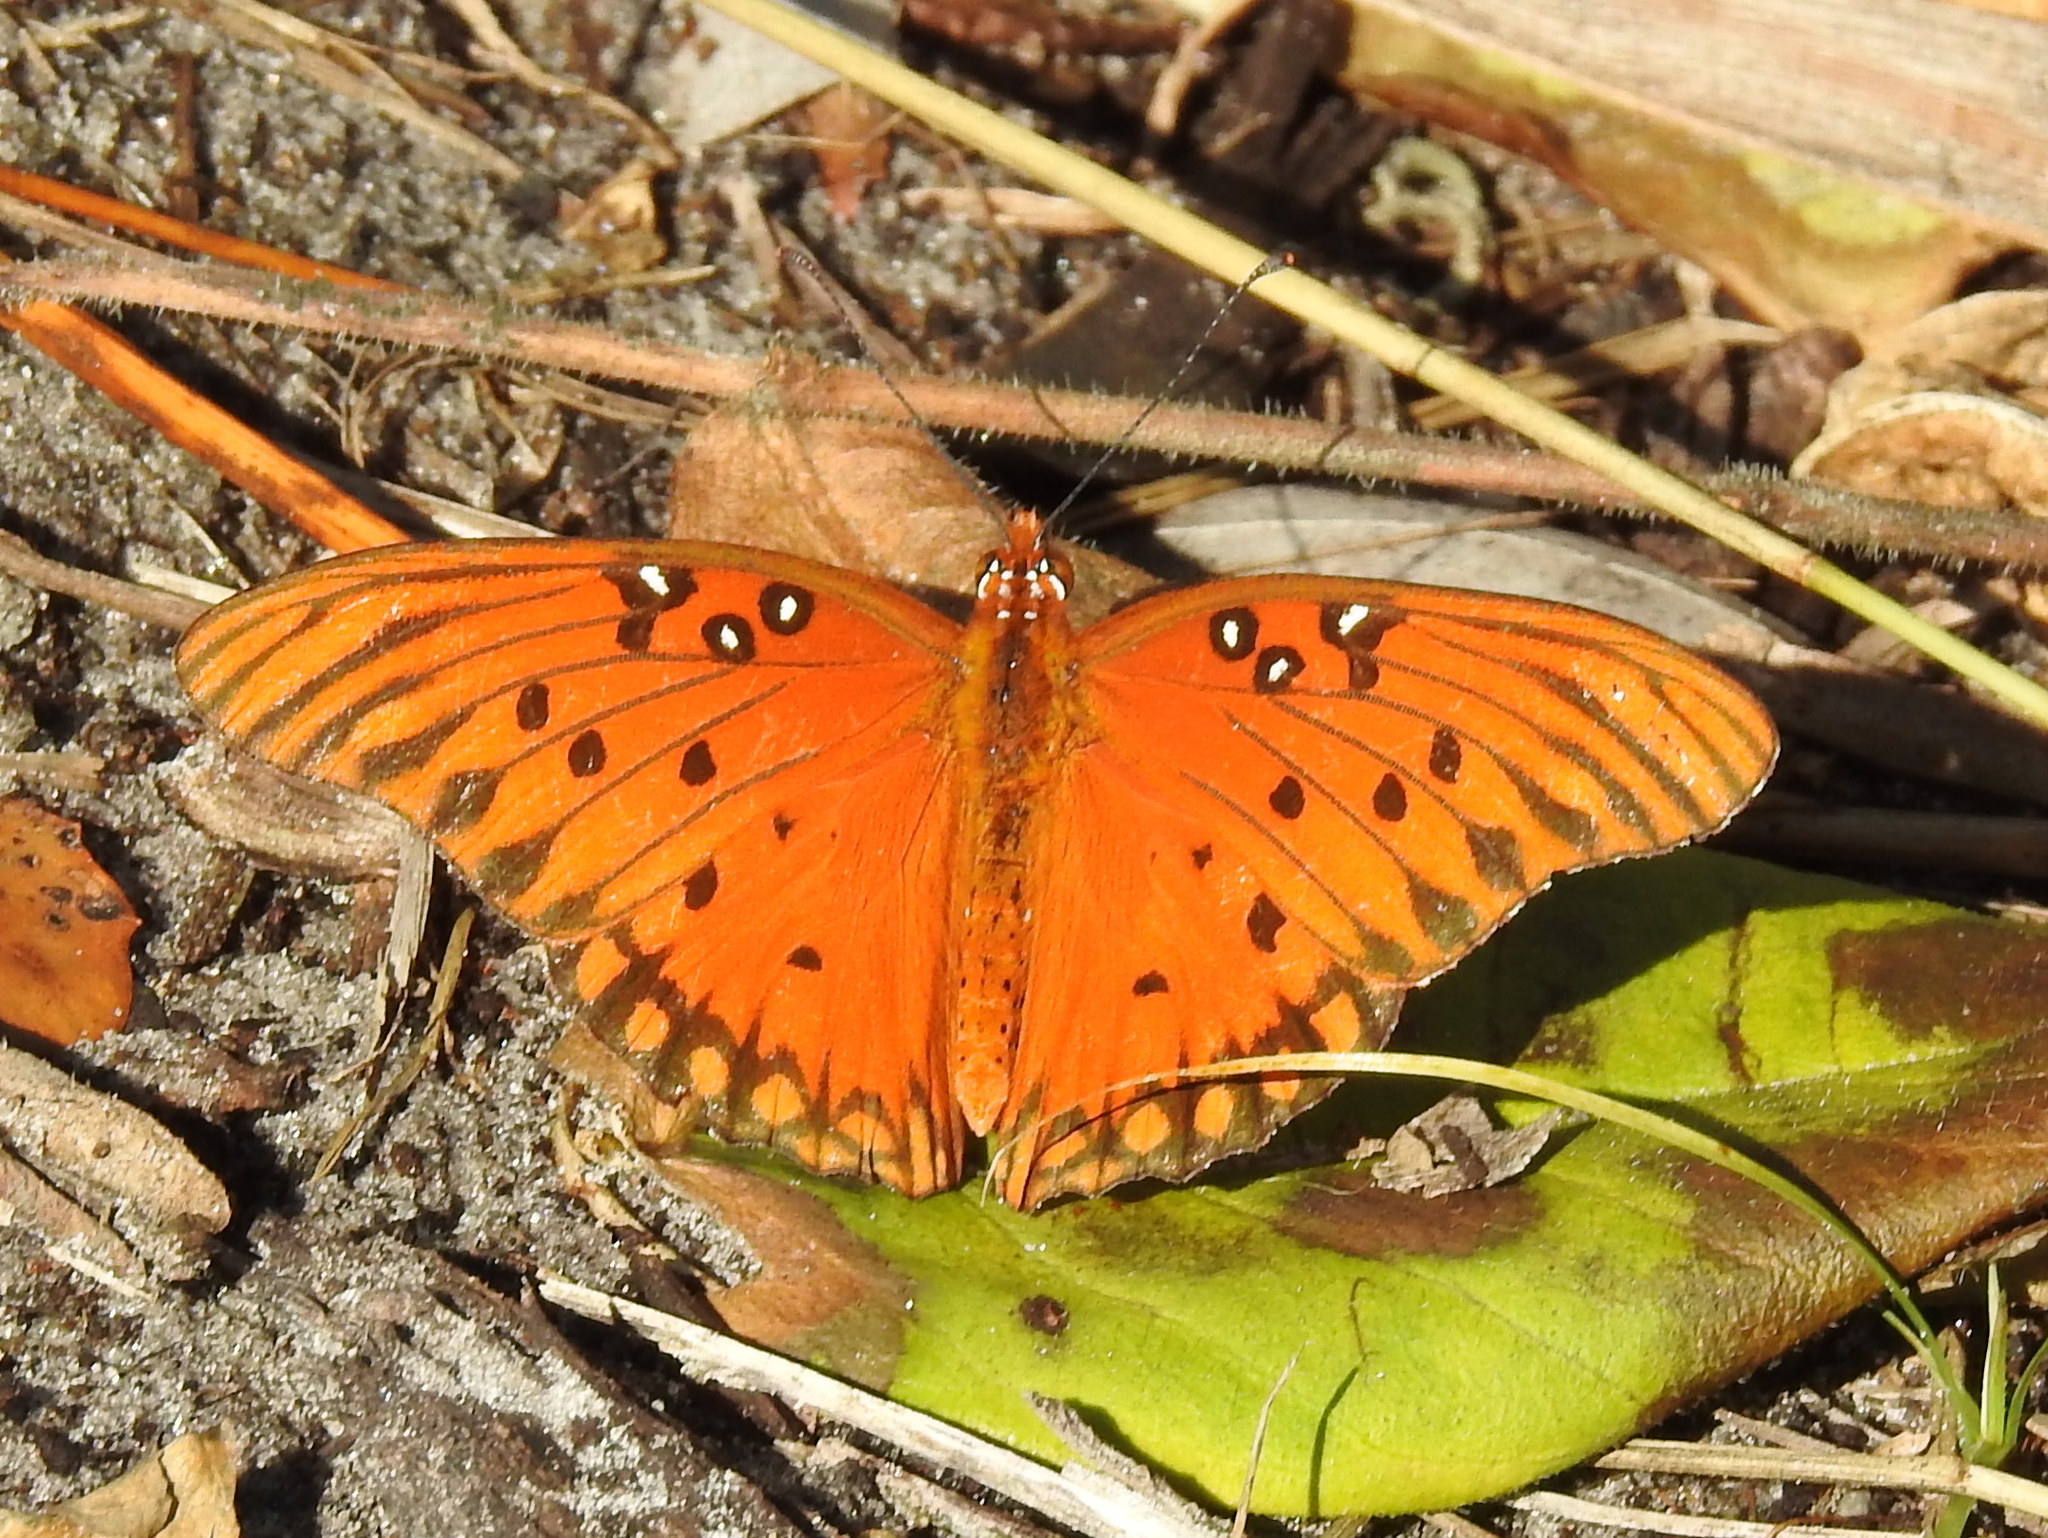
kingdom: Animalia
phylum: Arthropoda
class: Insecta
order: Lepidoptera
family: Nymphalidae
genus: Dione
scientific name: Dione vanillae
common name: Gulf fritillary
